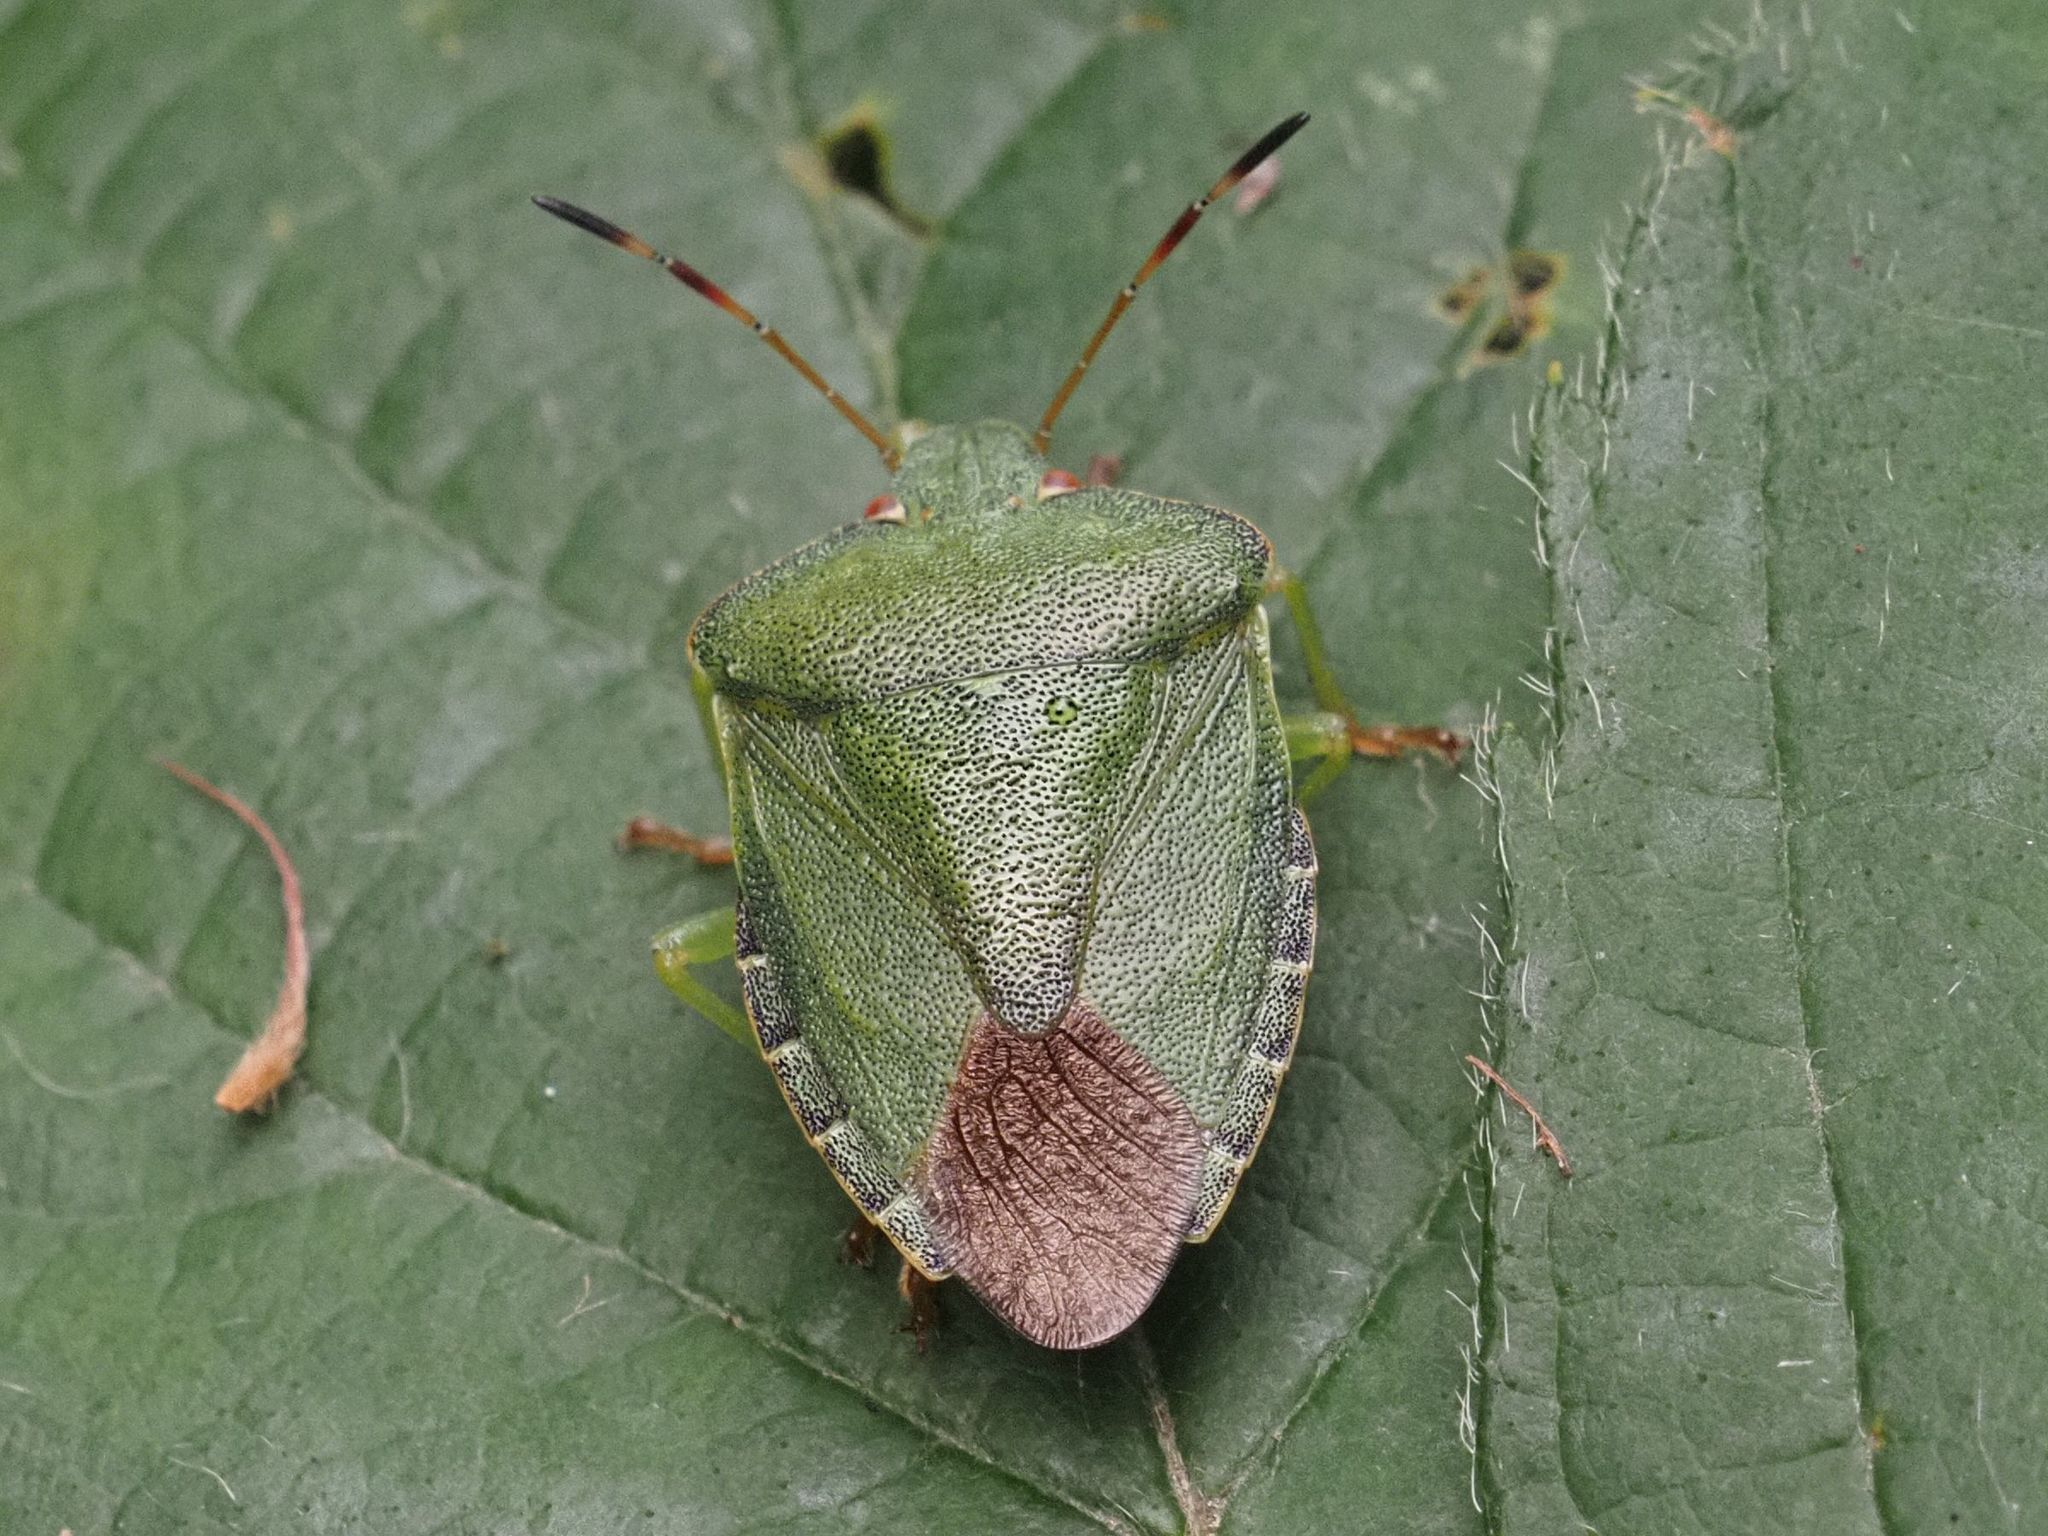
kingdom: Animalia
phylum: Arthropoda
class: Insecta
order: Hemiptera
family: Pentatomidae
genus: Palomena
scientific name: Palomena prasina
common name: Green shieldbug
